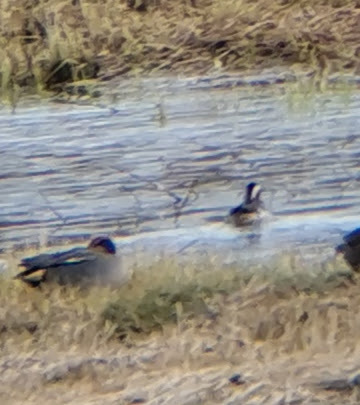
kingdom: Animalia
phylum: Chordata
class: Aves
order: Anseriformes
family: Anatidae
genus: Spatula
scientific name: Spatula querquedula
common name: Garganey
